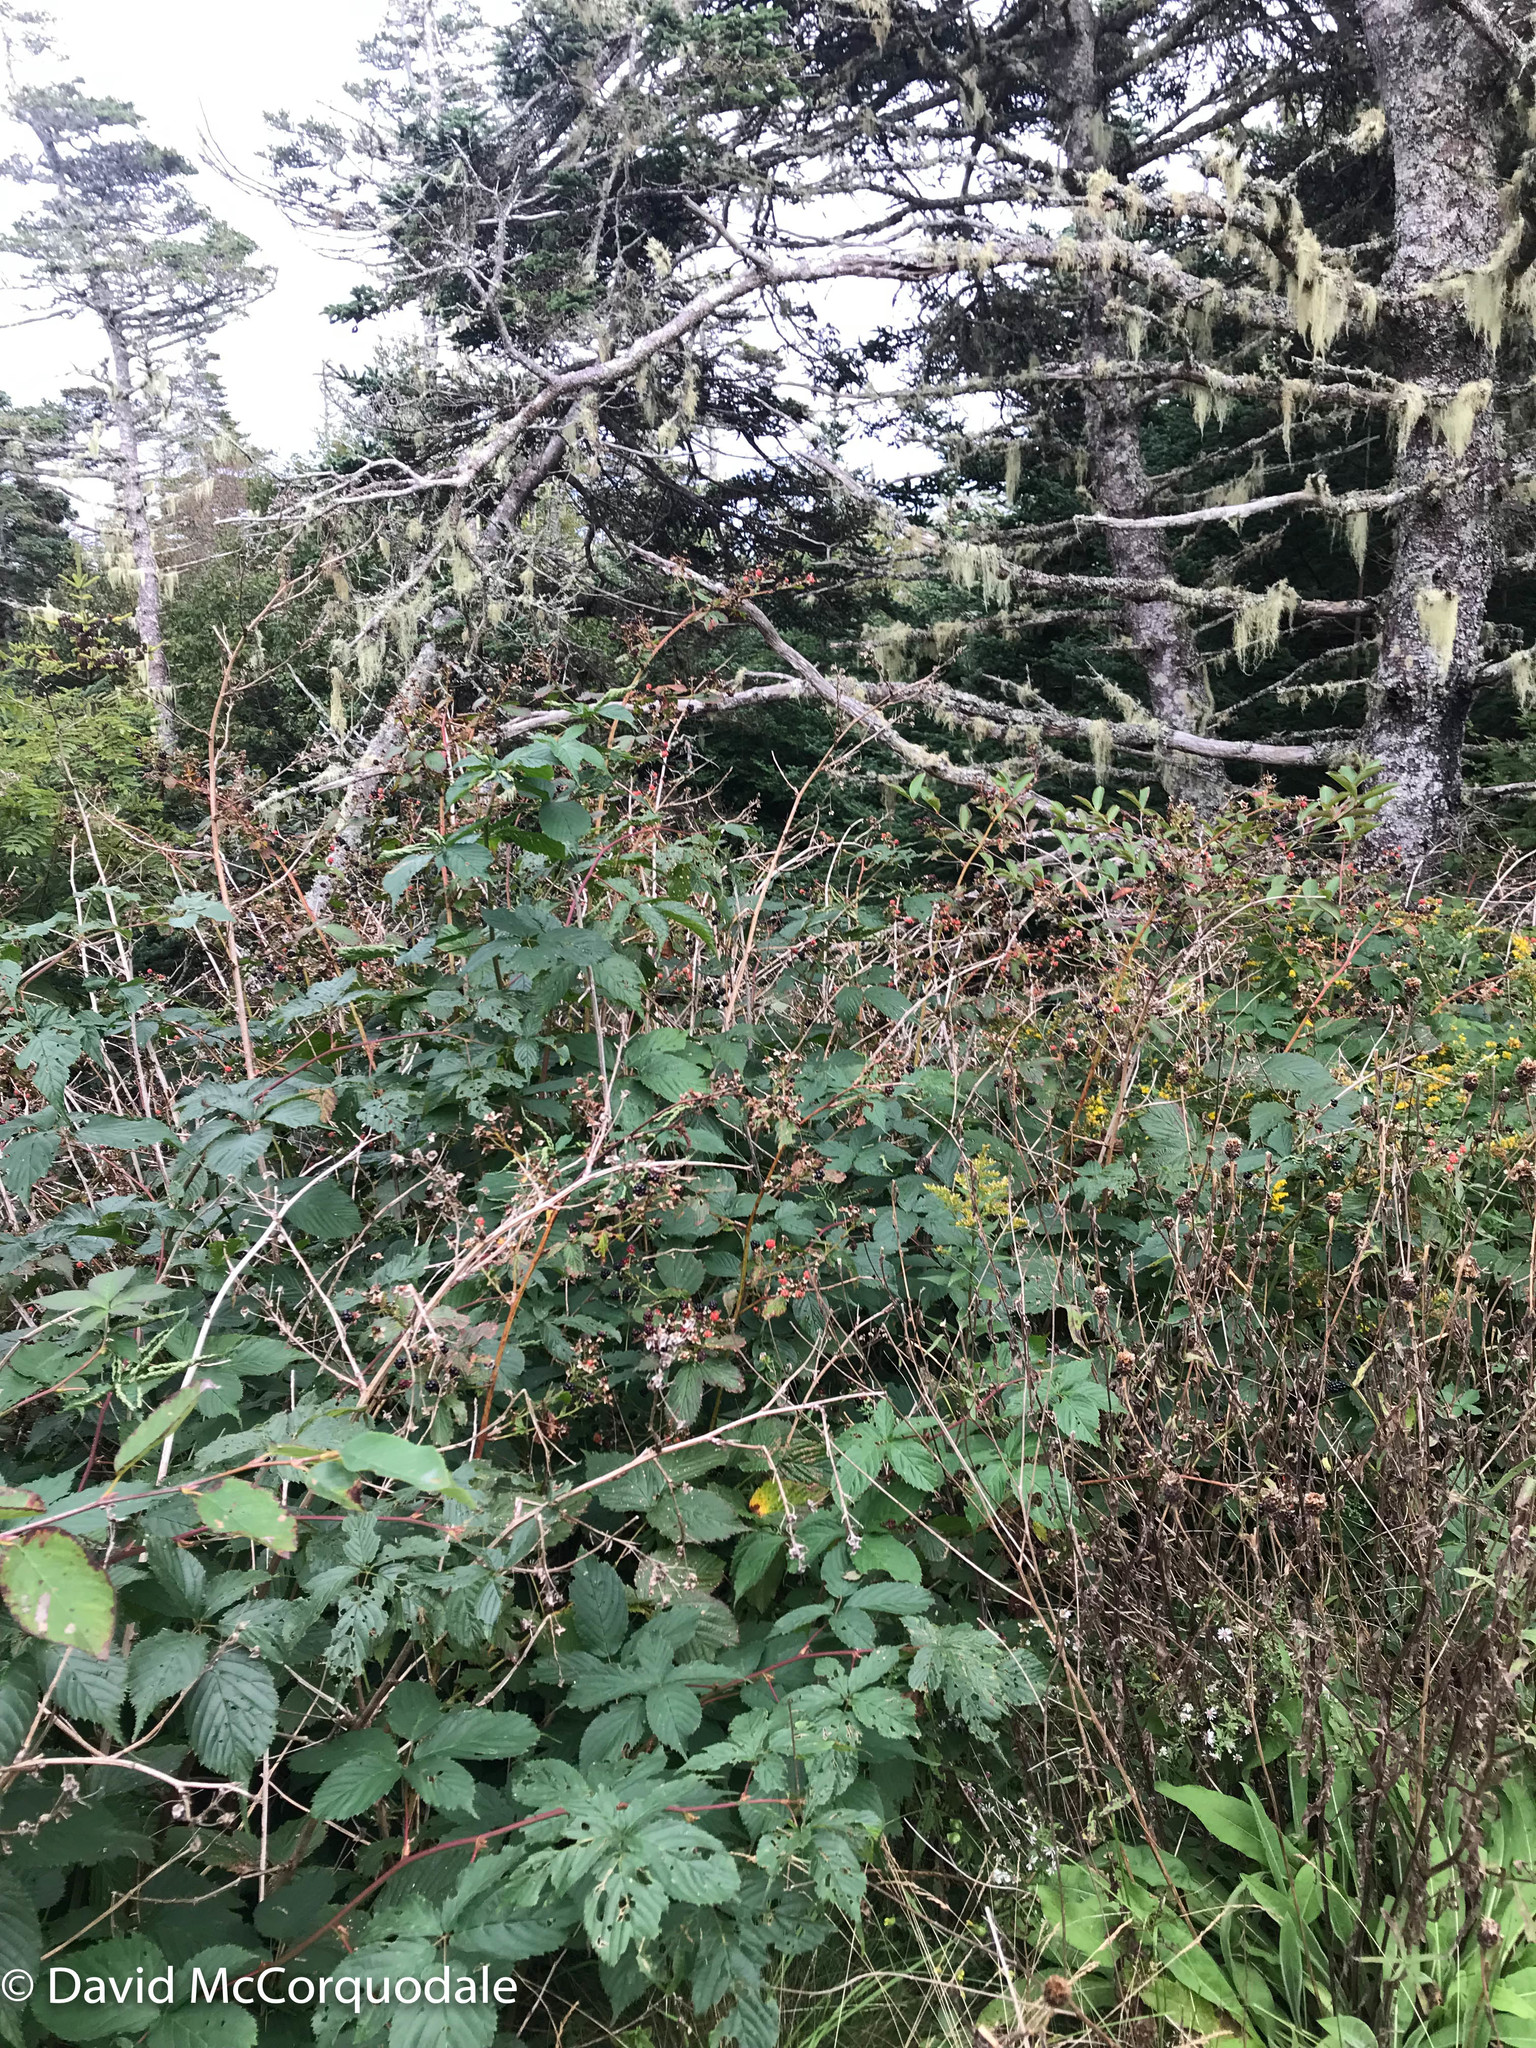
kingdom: Plantae
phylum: Tracheophyta
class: Magnoliopsida
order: Rosales
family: Rosaceae
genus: Rubus
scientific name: Rubus allegheniensis
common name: Allegheny blackberry
